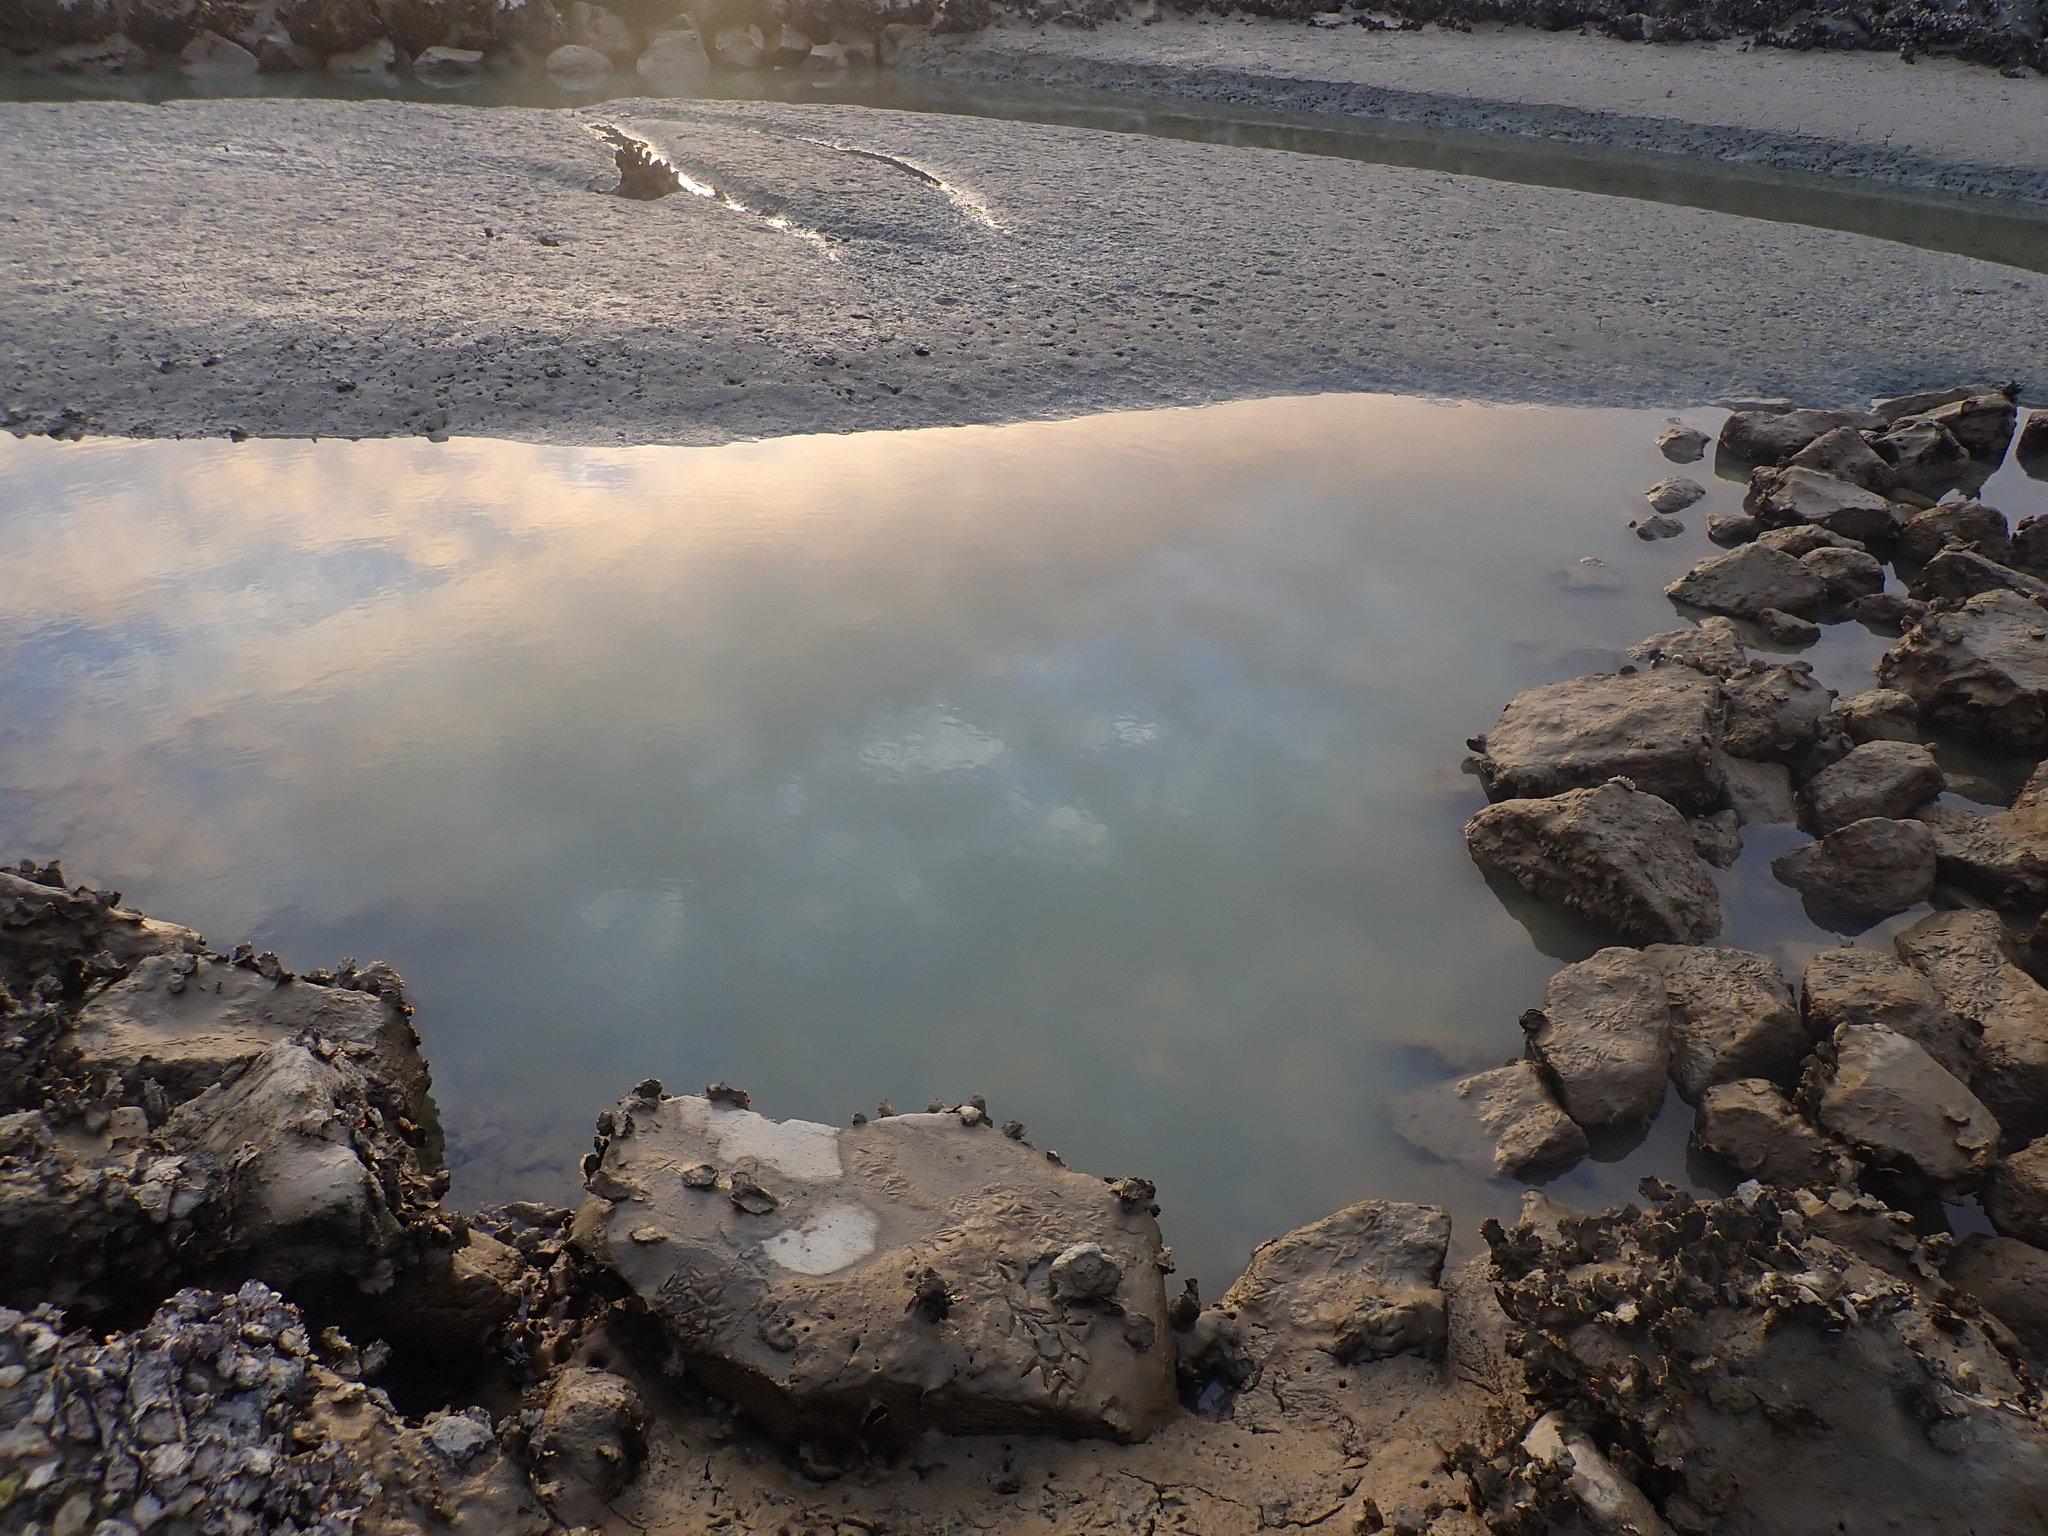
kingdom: Animalia
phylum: Mollusca
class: Bivalvia
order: Ostreida
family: Ostreidae
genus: Magallana
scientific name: Magallana gigas
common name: Pacific oyster
